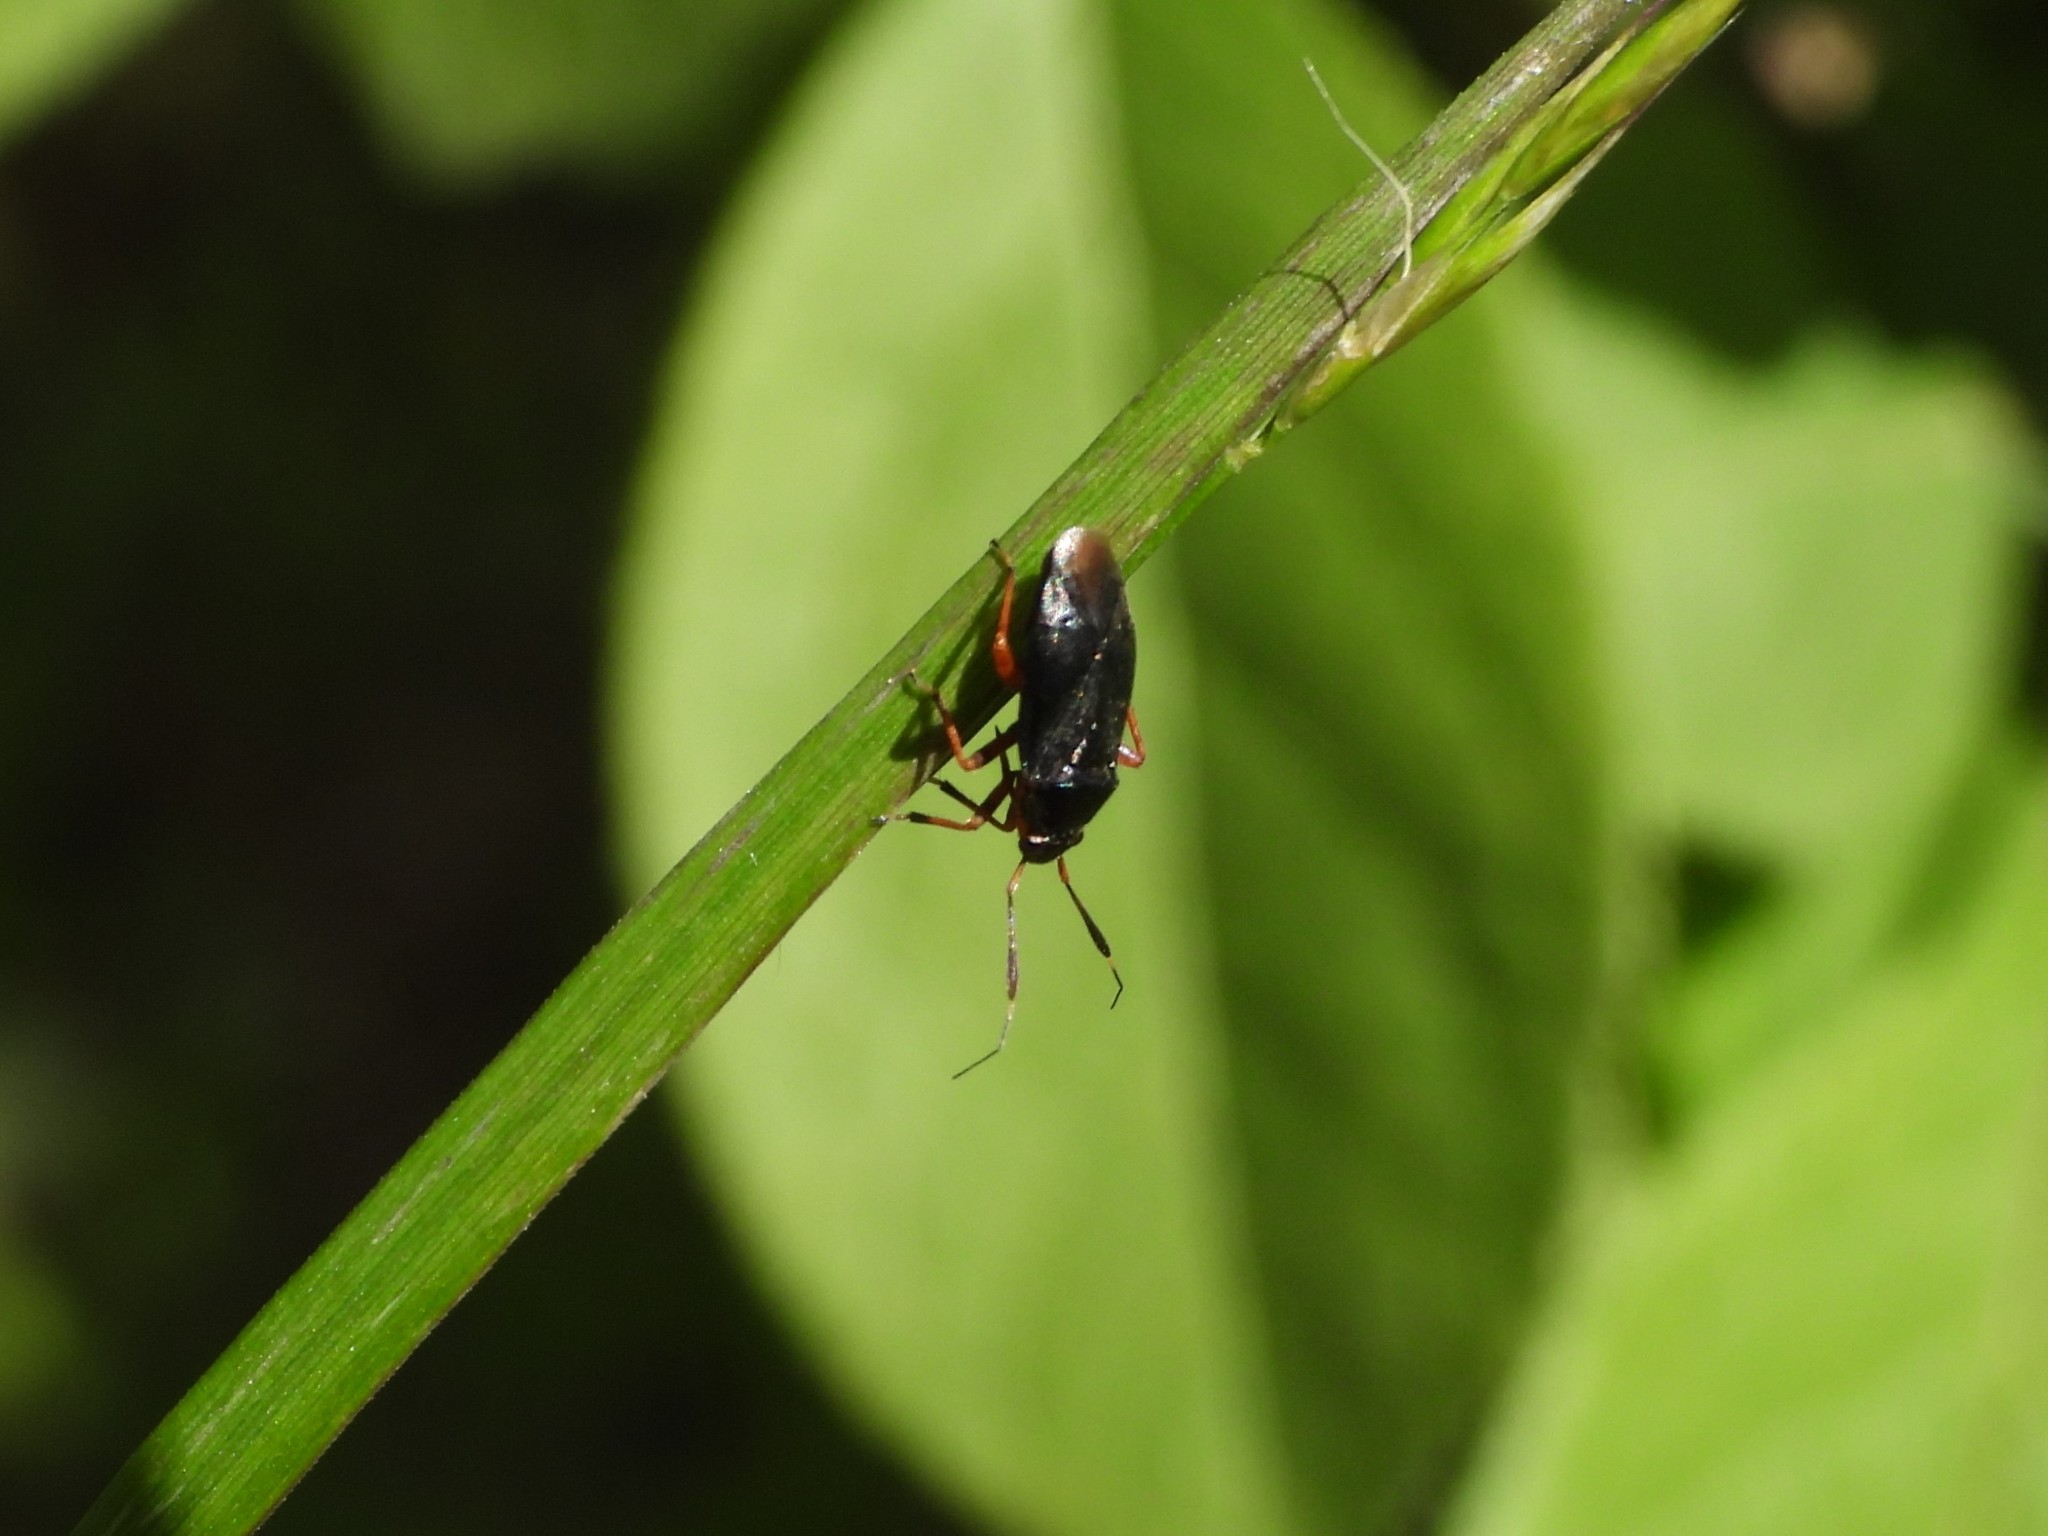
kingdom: Animalia
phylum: Arthropoda
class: Insecta
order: Hemiptera
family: Miridae
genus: Capsus
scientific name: Capsus ater
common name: Black plant bug
